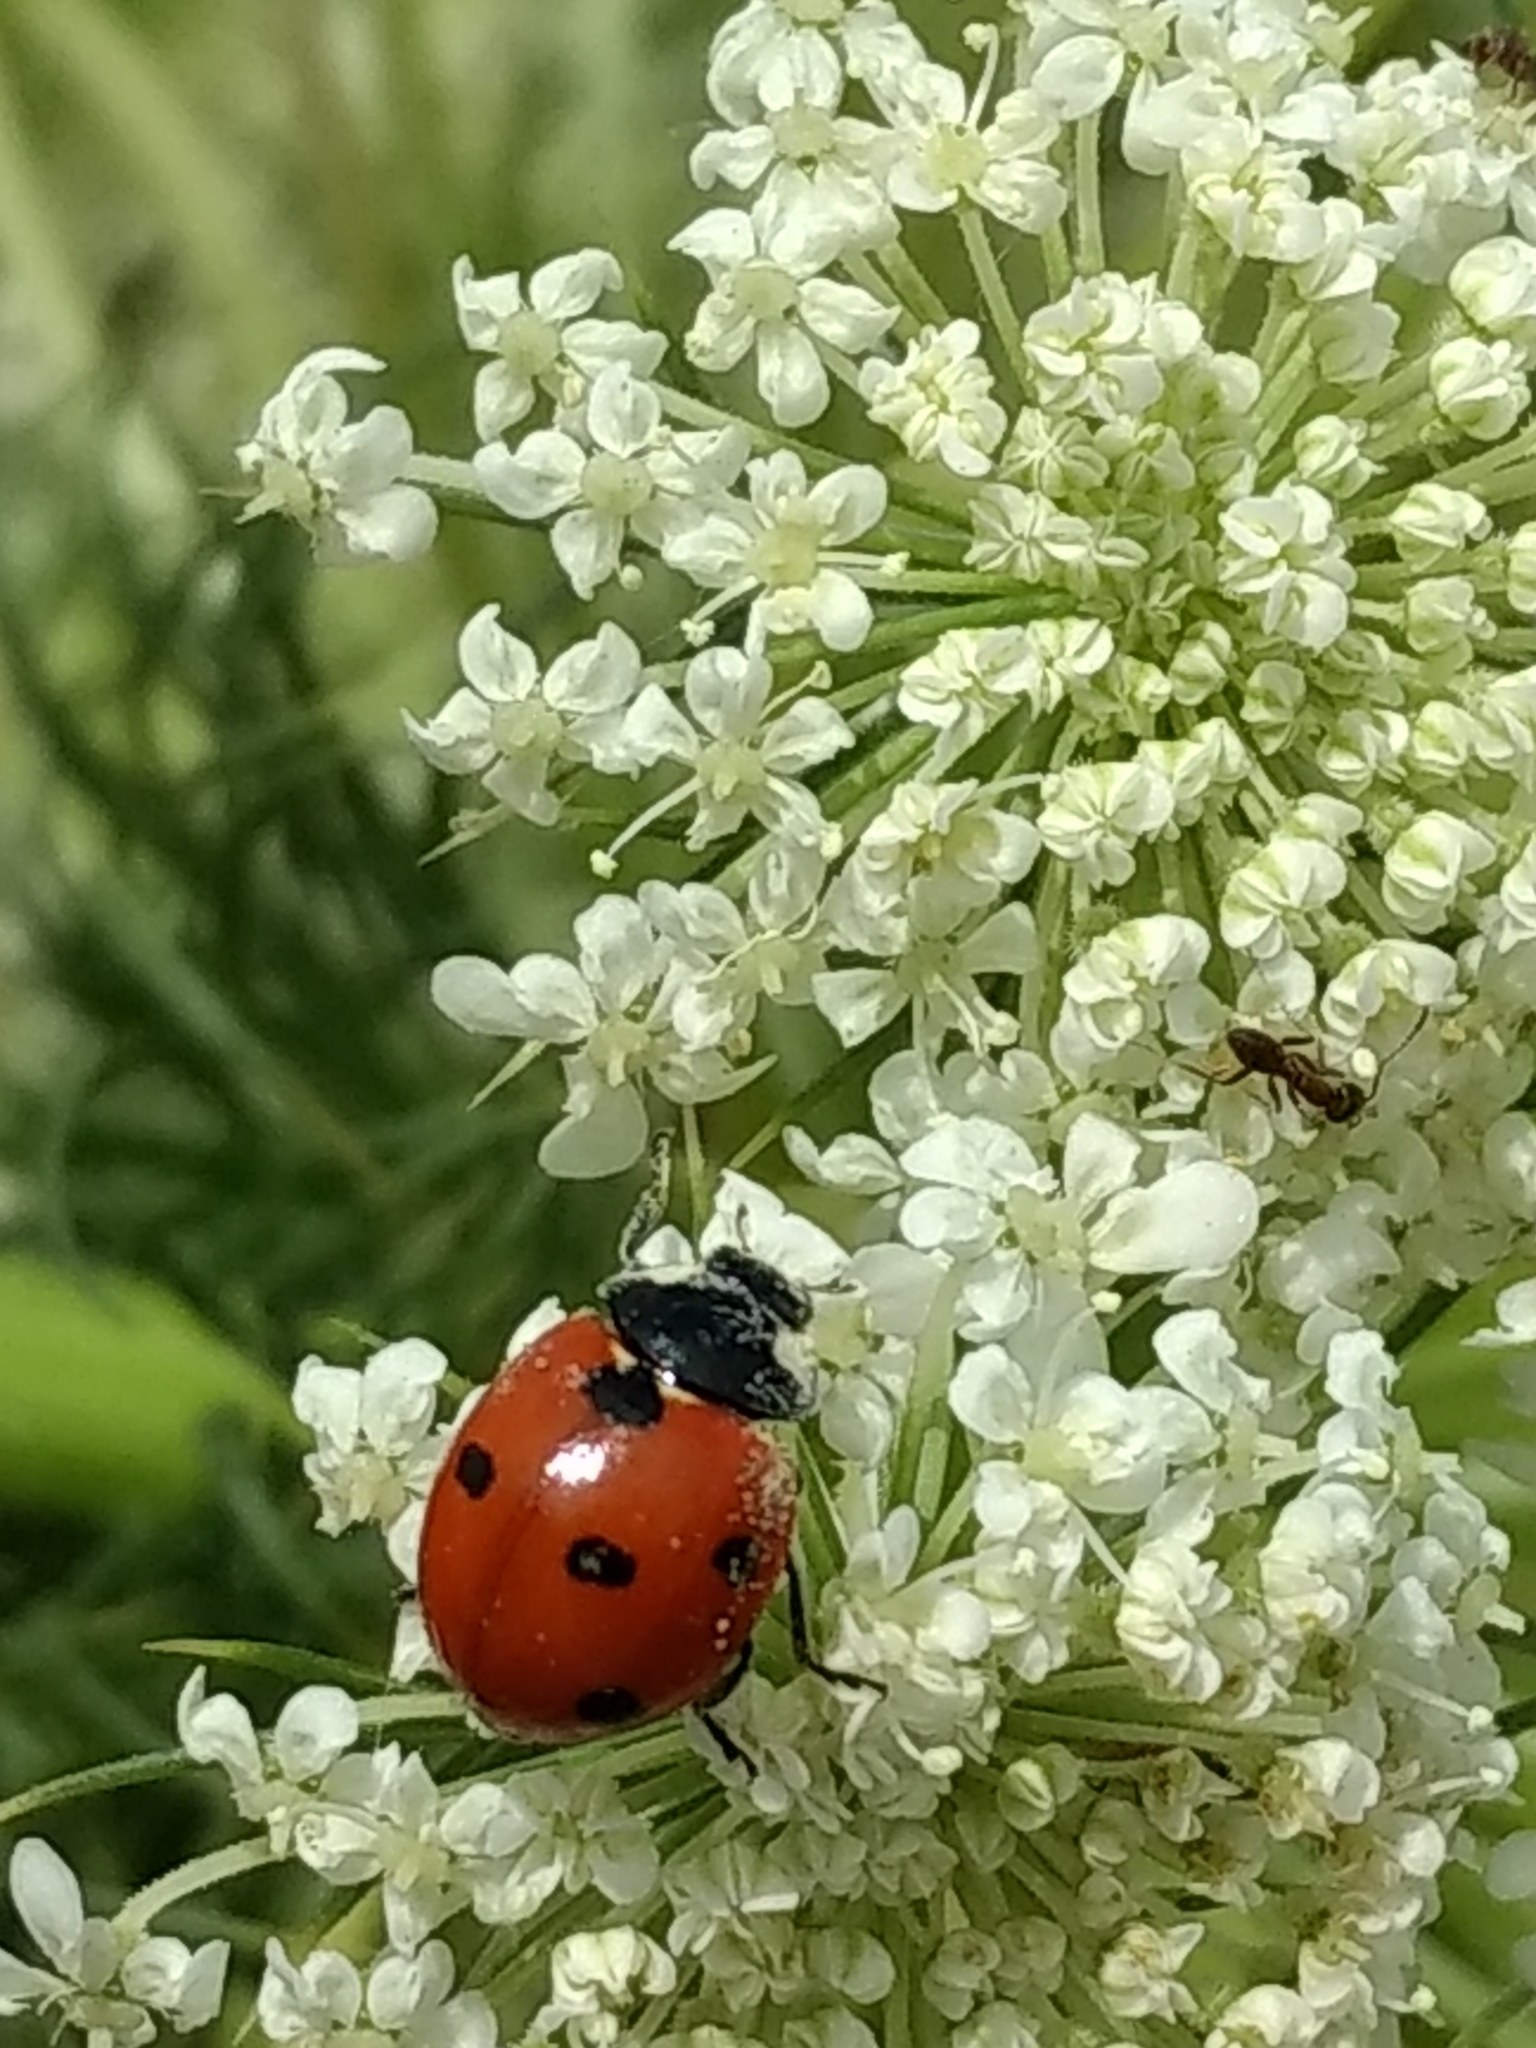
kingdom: Animalia
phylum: Arthropoda
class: Insecta
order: Coleoptera
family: Coccinellidae
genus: Coccinella
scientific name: Coccinella septempunctata
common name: Sevenspotted lady beetle
